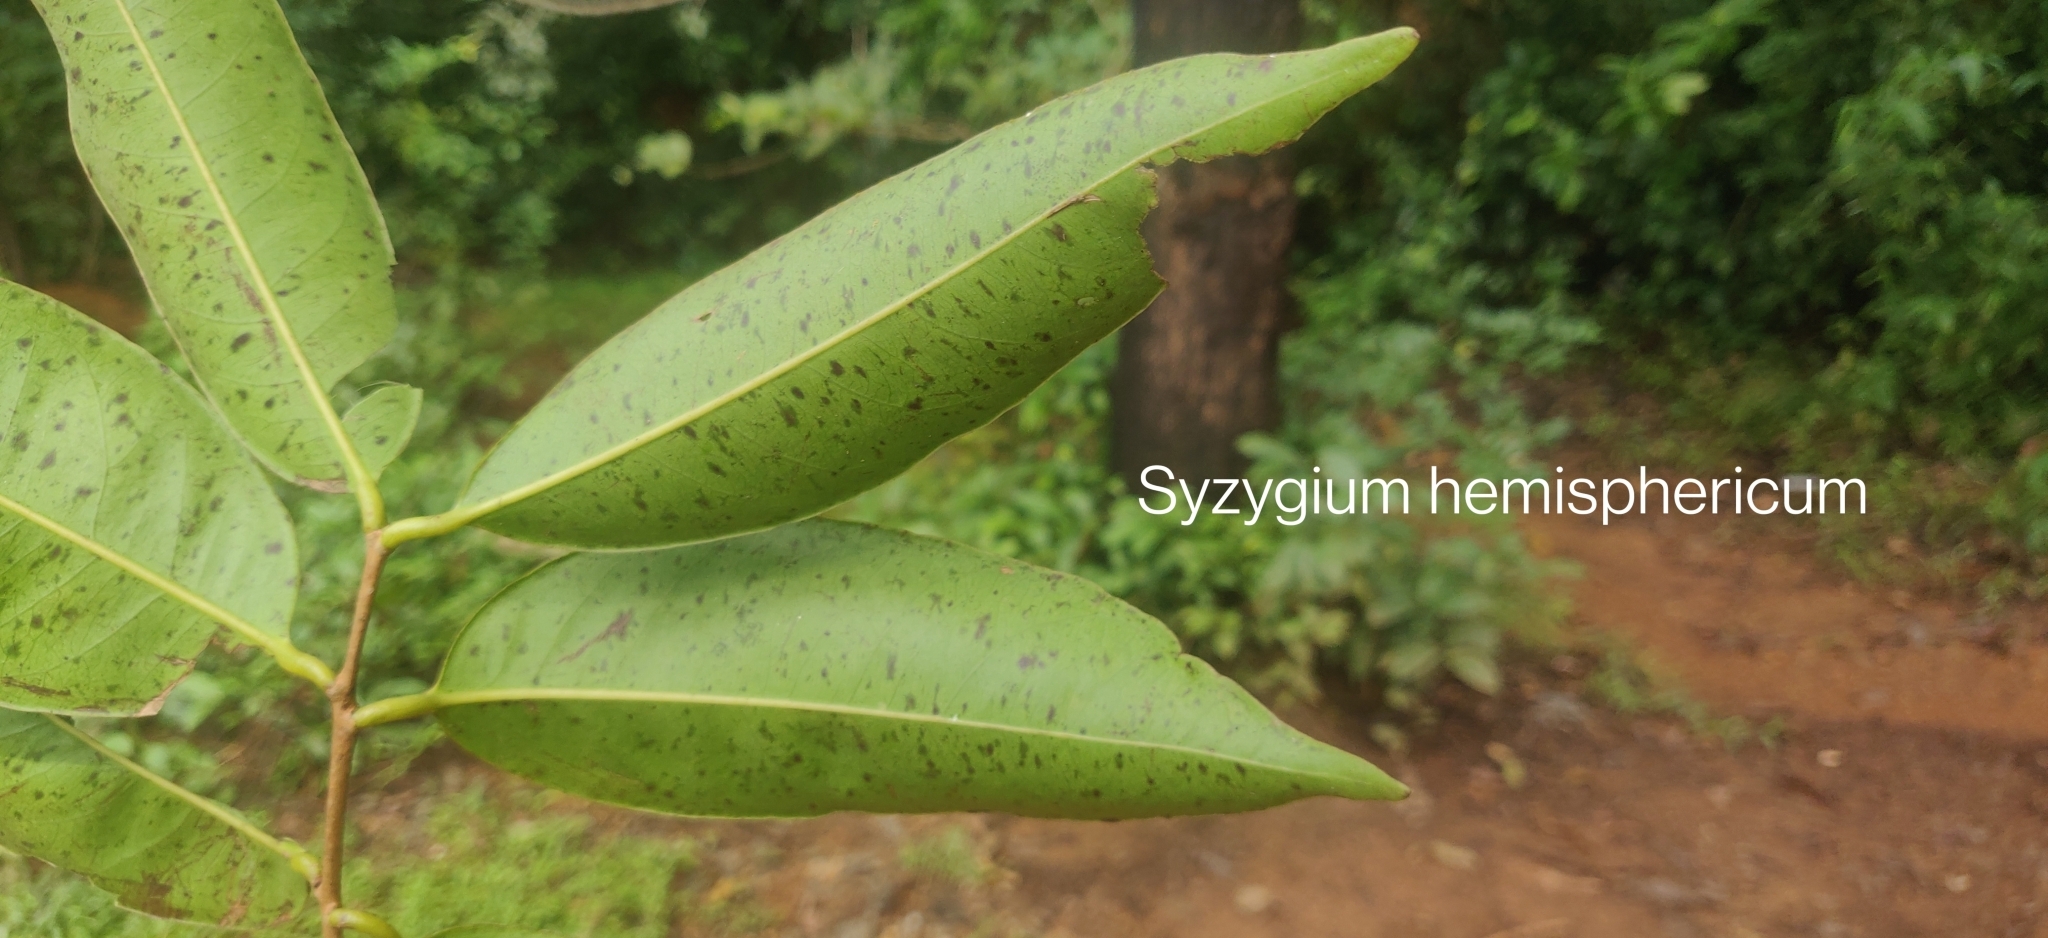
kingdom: Plantae
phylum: Tracheophyta
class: Magnoliopsida
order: Myrtales
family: Myrtaceae
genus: Syzygium
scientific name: Syzygium hemisphericum
